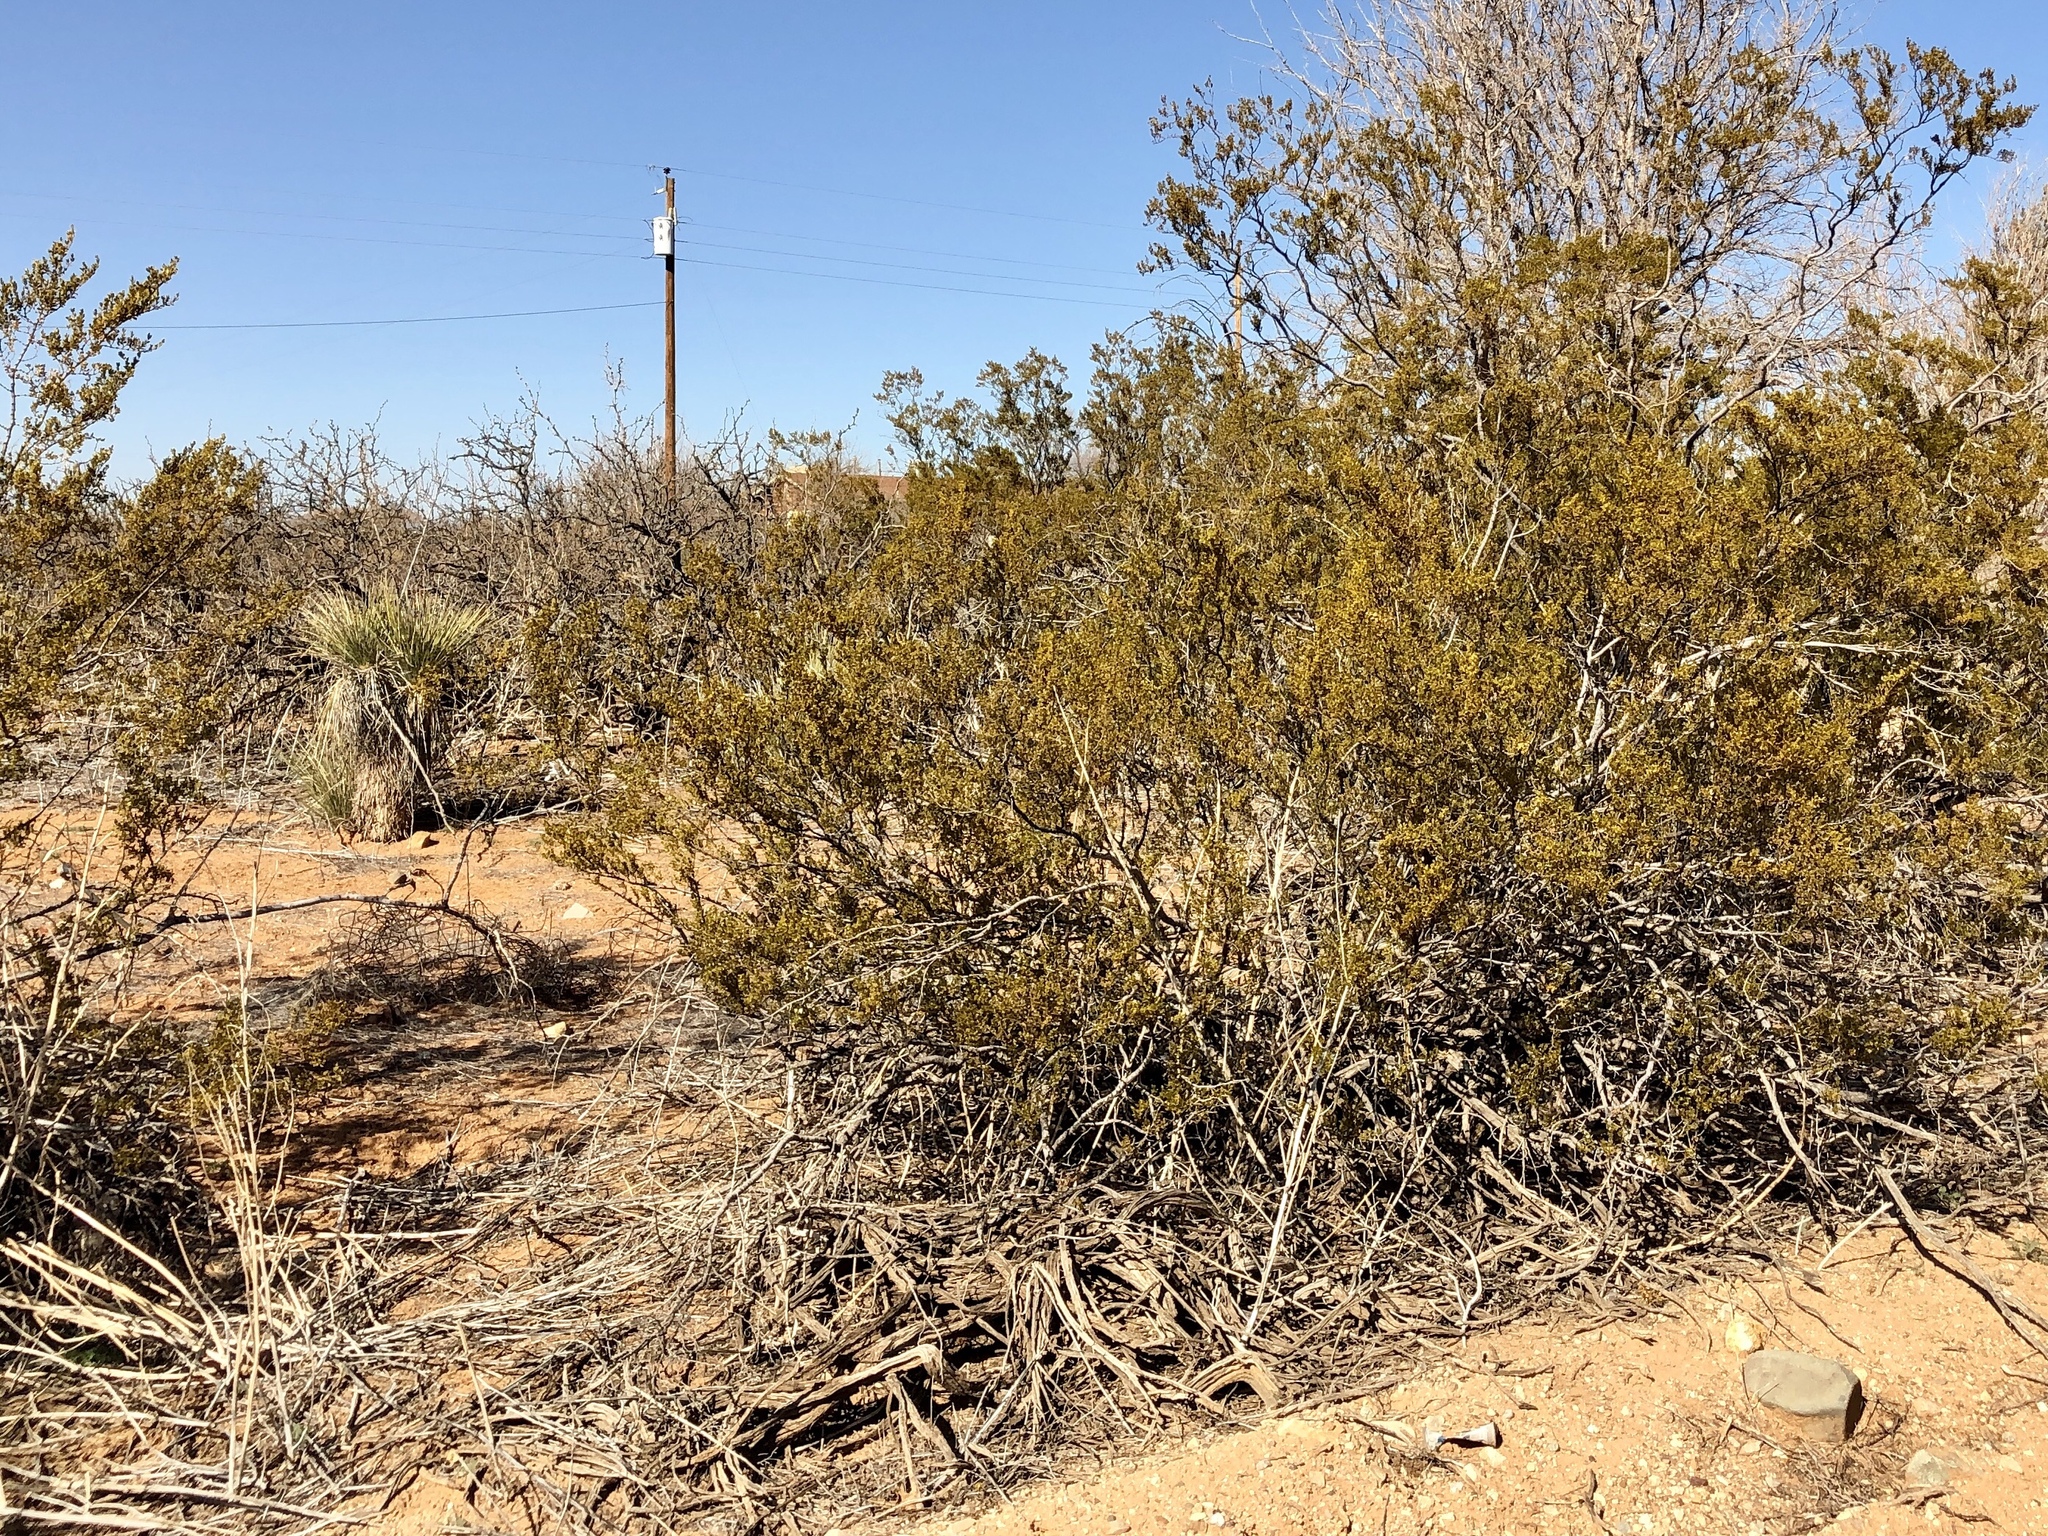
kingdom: Plantae
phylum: Tracheophyta
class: Magnoliopsida
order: Zygophyllales
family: Zygophyllaceae
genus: Larrea
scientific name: Larrea tridentata
